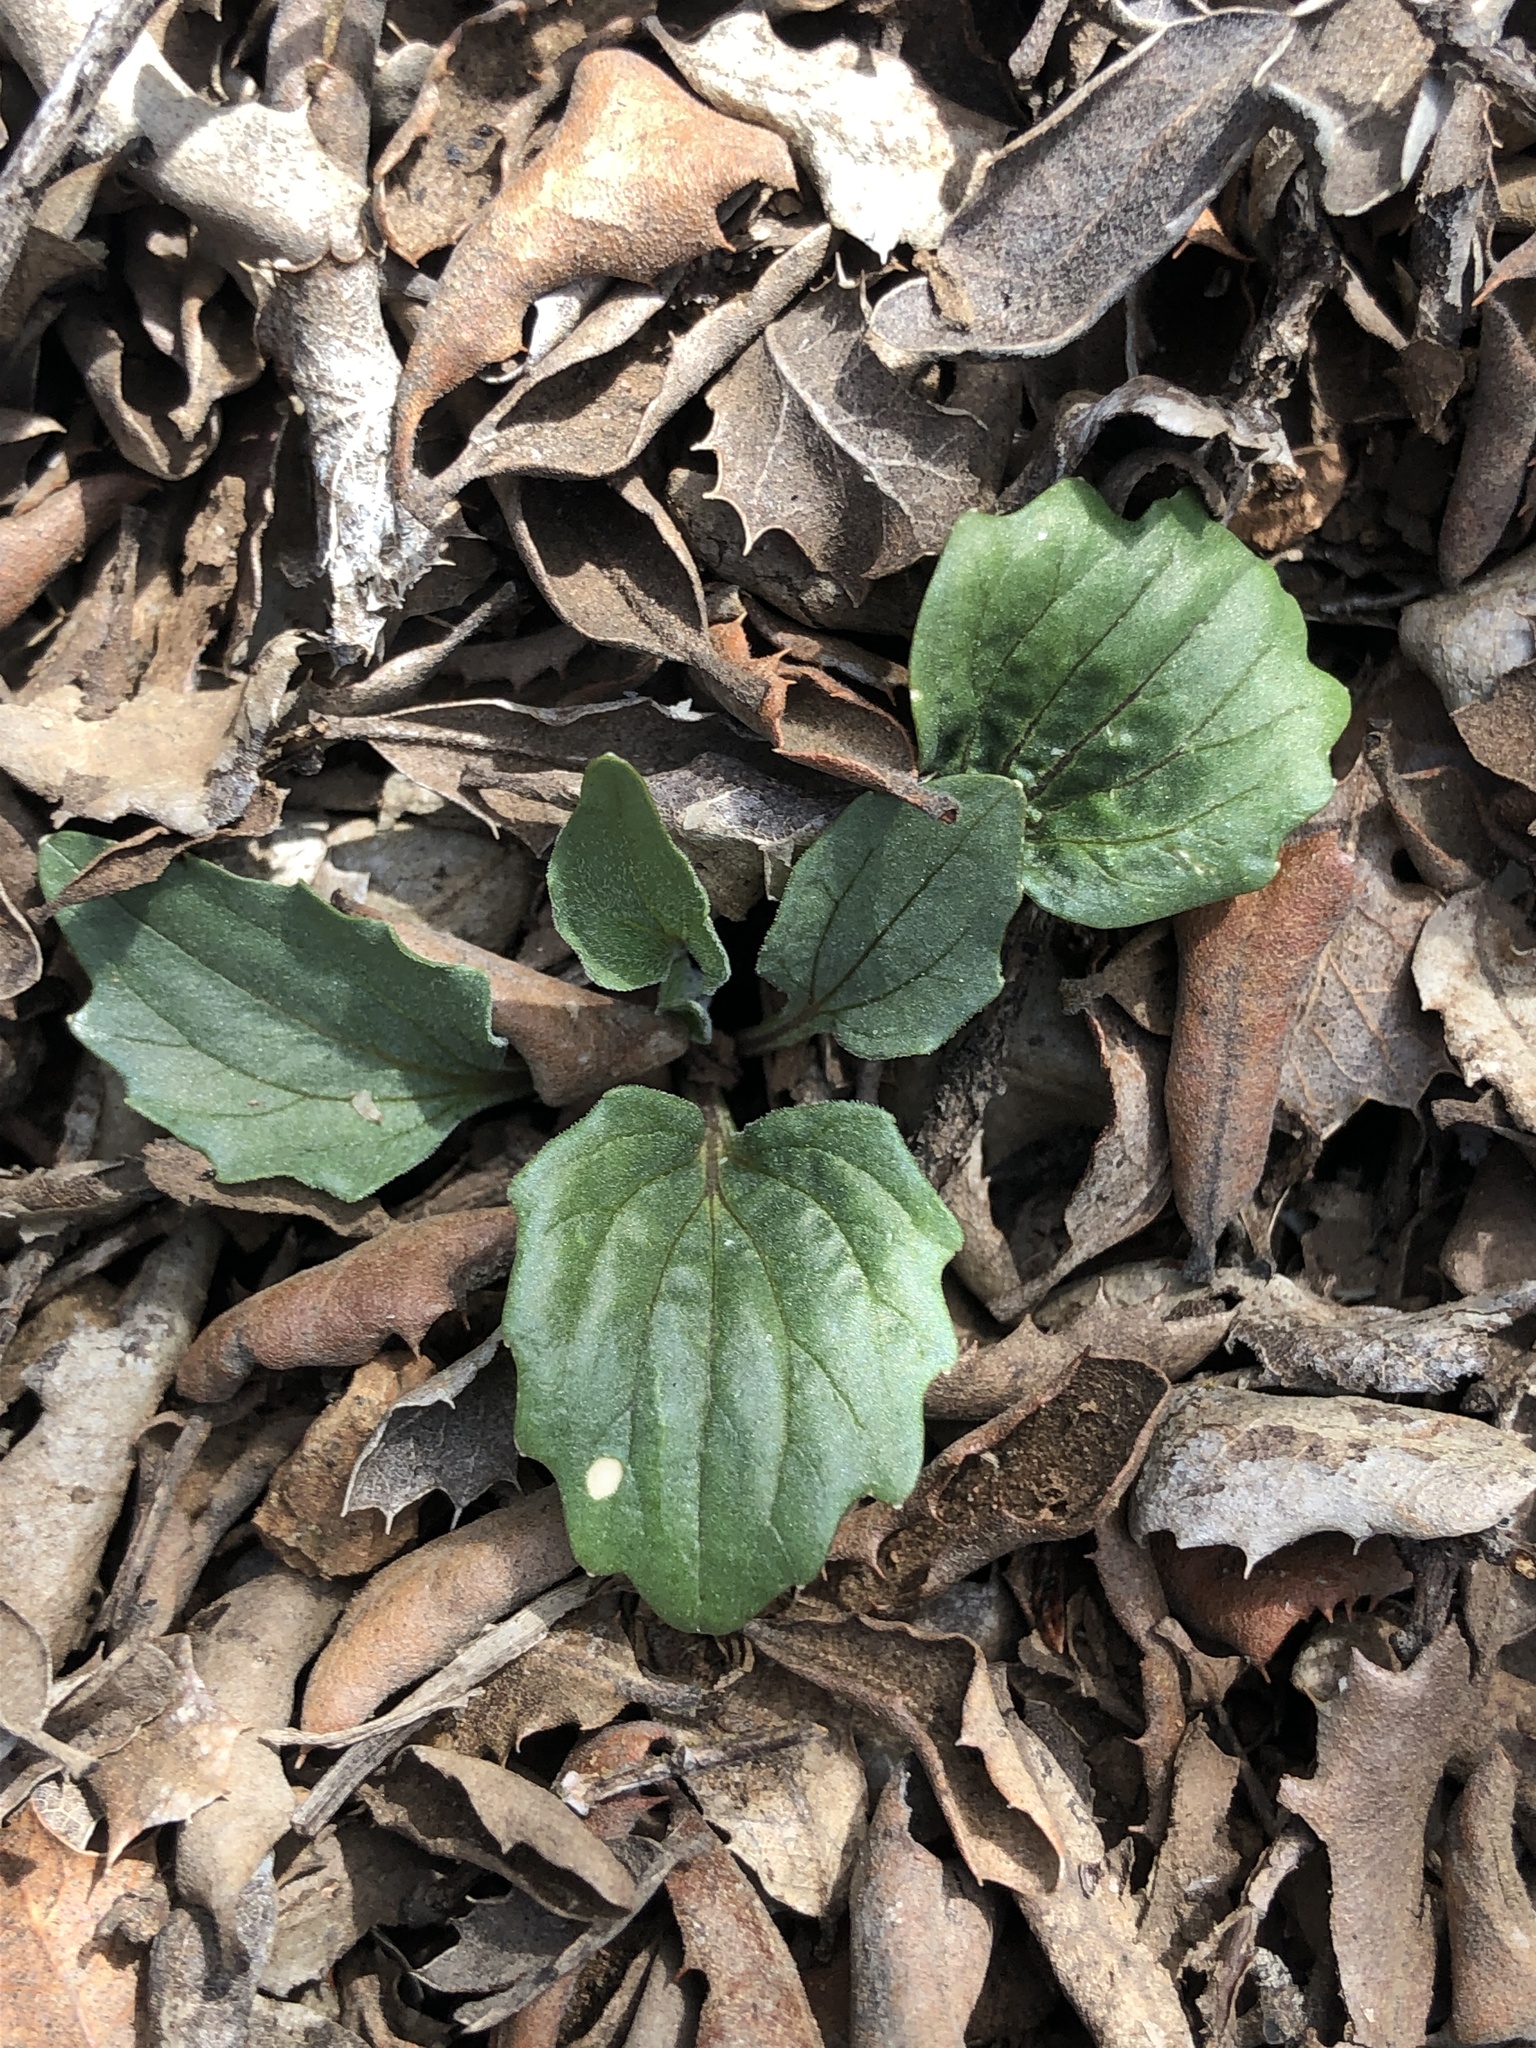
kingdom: Plantae
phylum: Tracheophyta
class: Magnoliopsida
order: Malpighiales
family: Violaceae
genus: Viola
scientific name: Viola purpurea
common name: Pine violet
